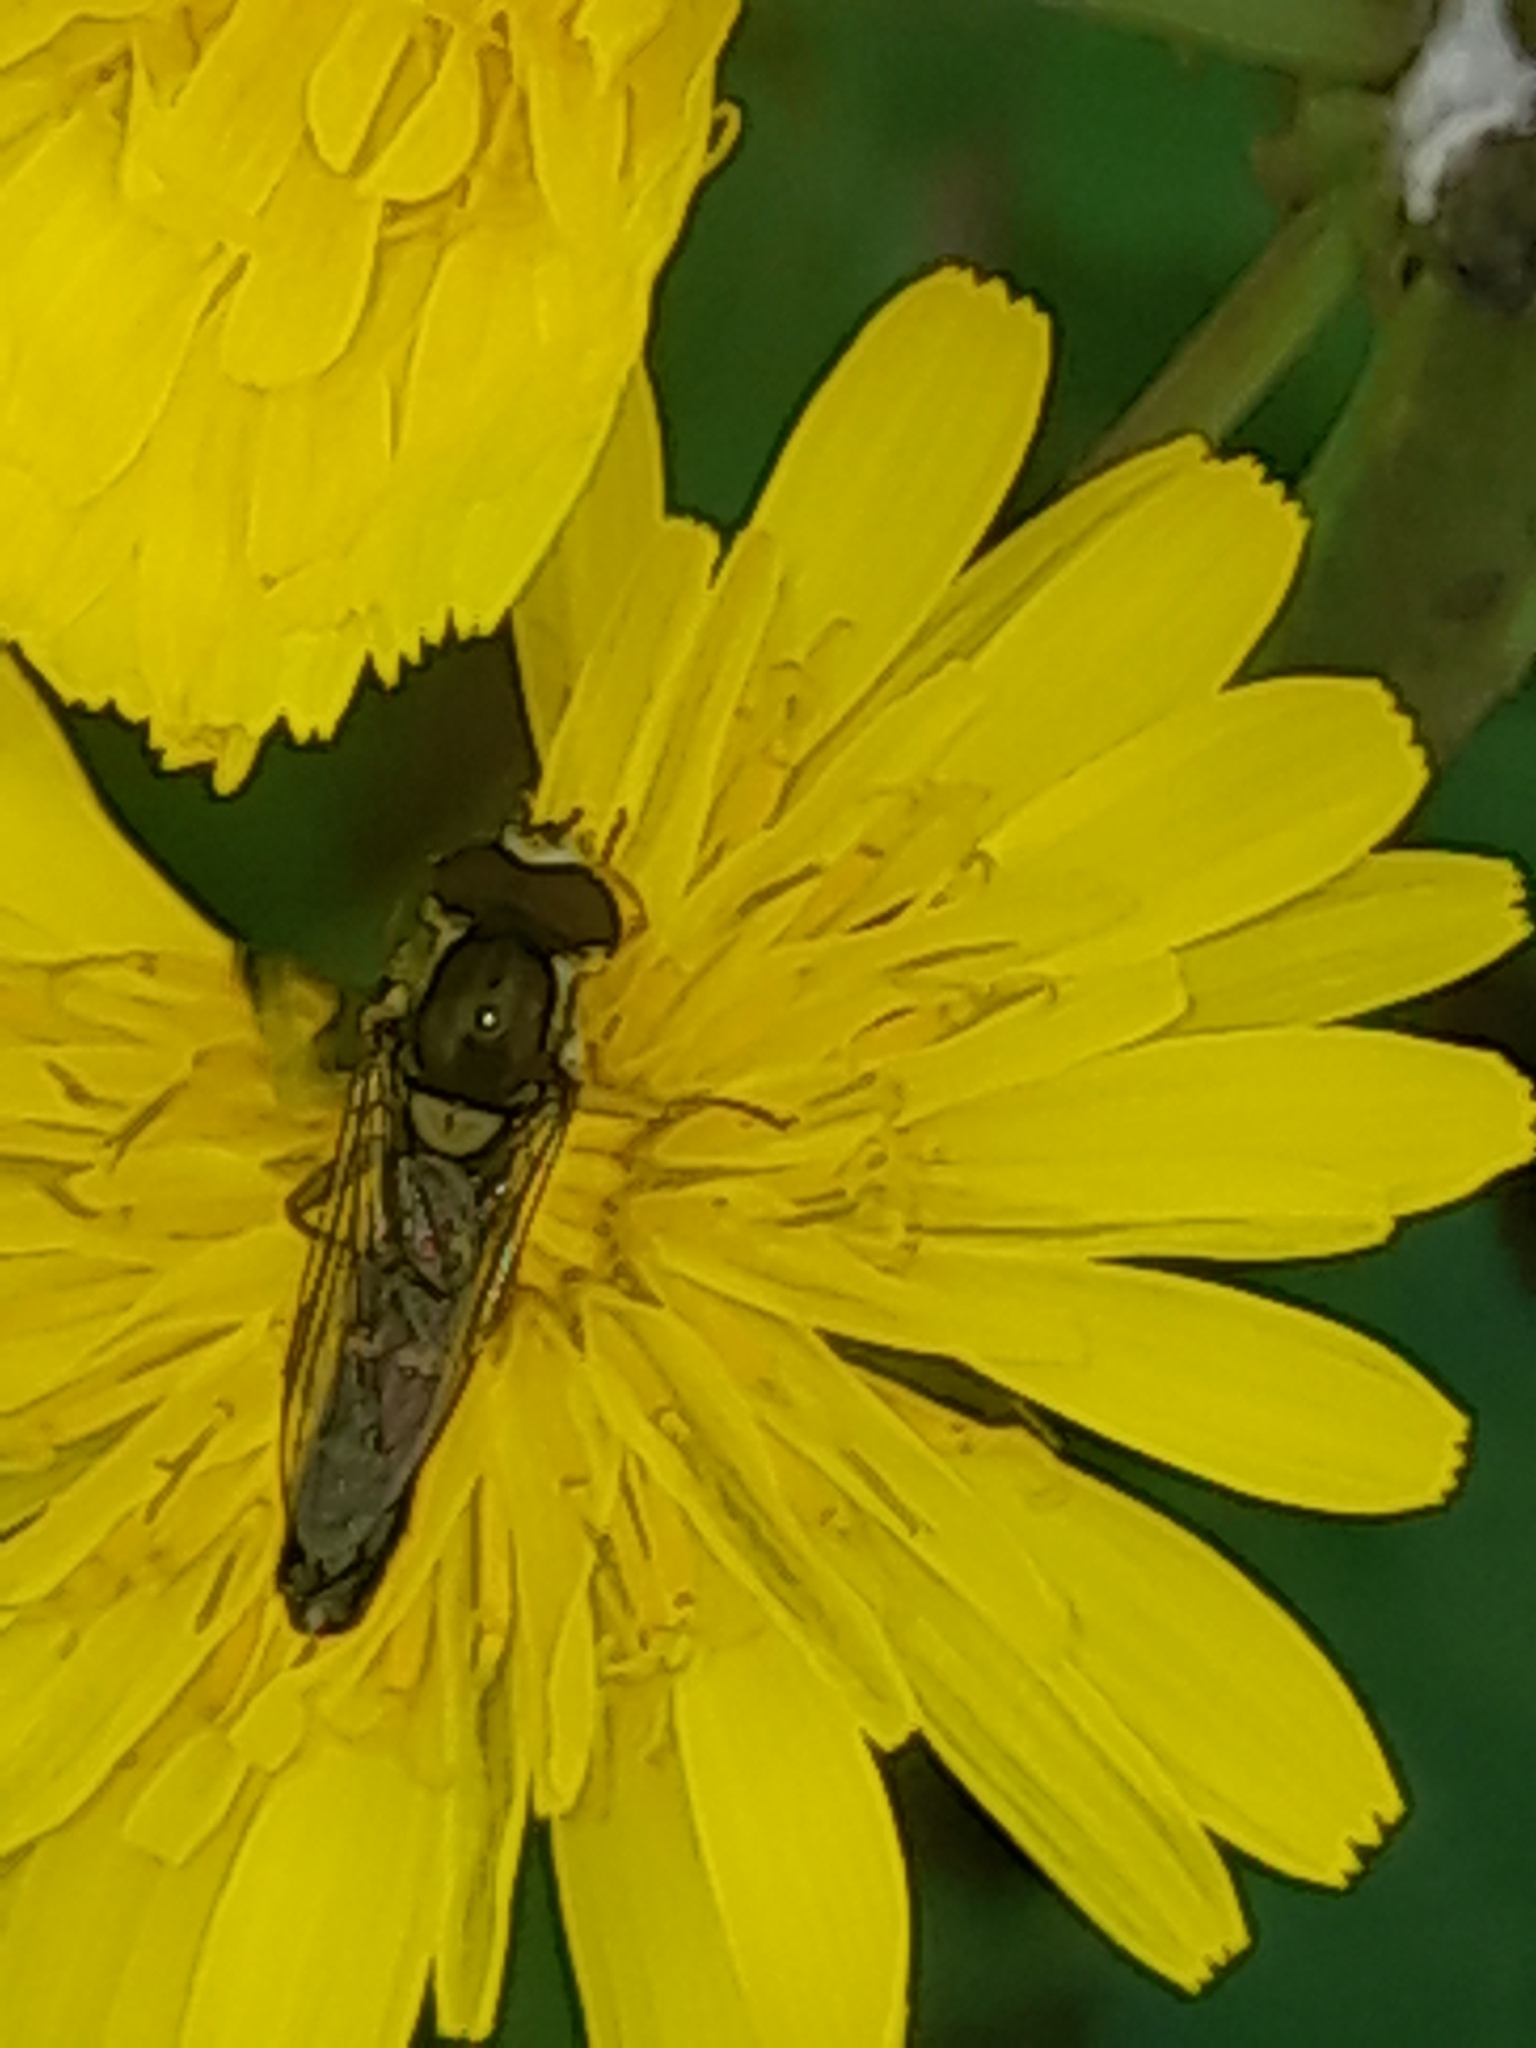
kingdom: Animalia
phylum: Arthropoda
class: Insecta
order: Diptera
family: Syrphidae
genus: Sphaerophoria
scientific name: Sphaerophoria scripta
